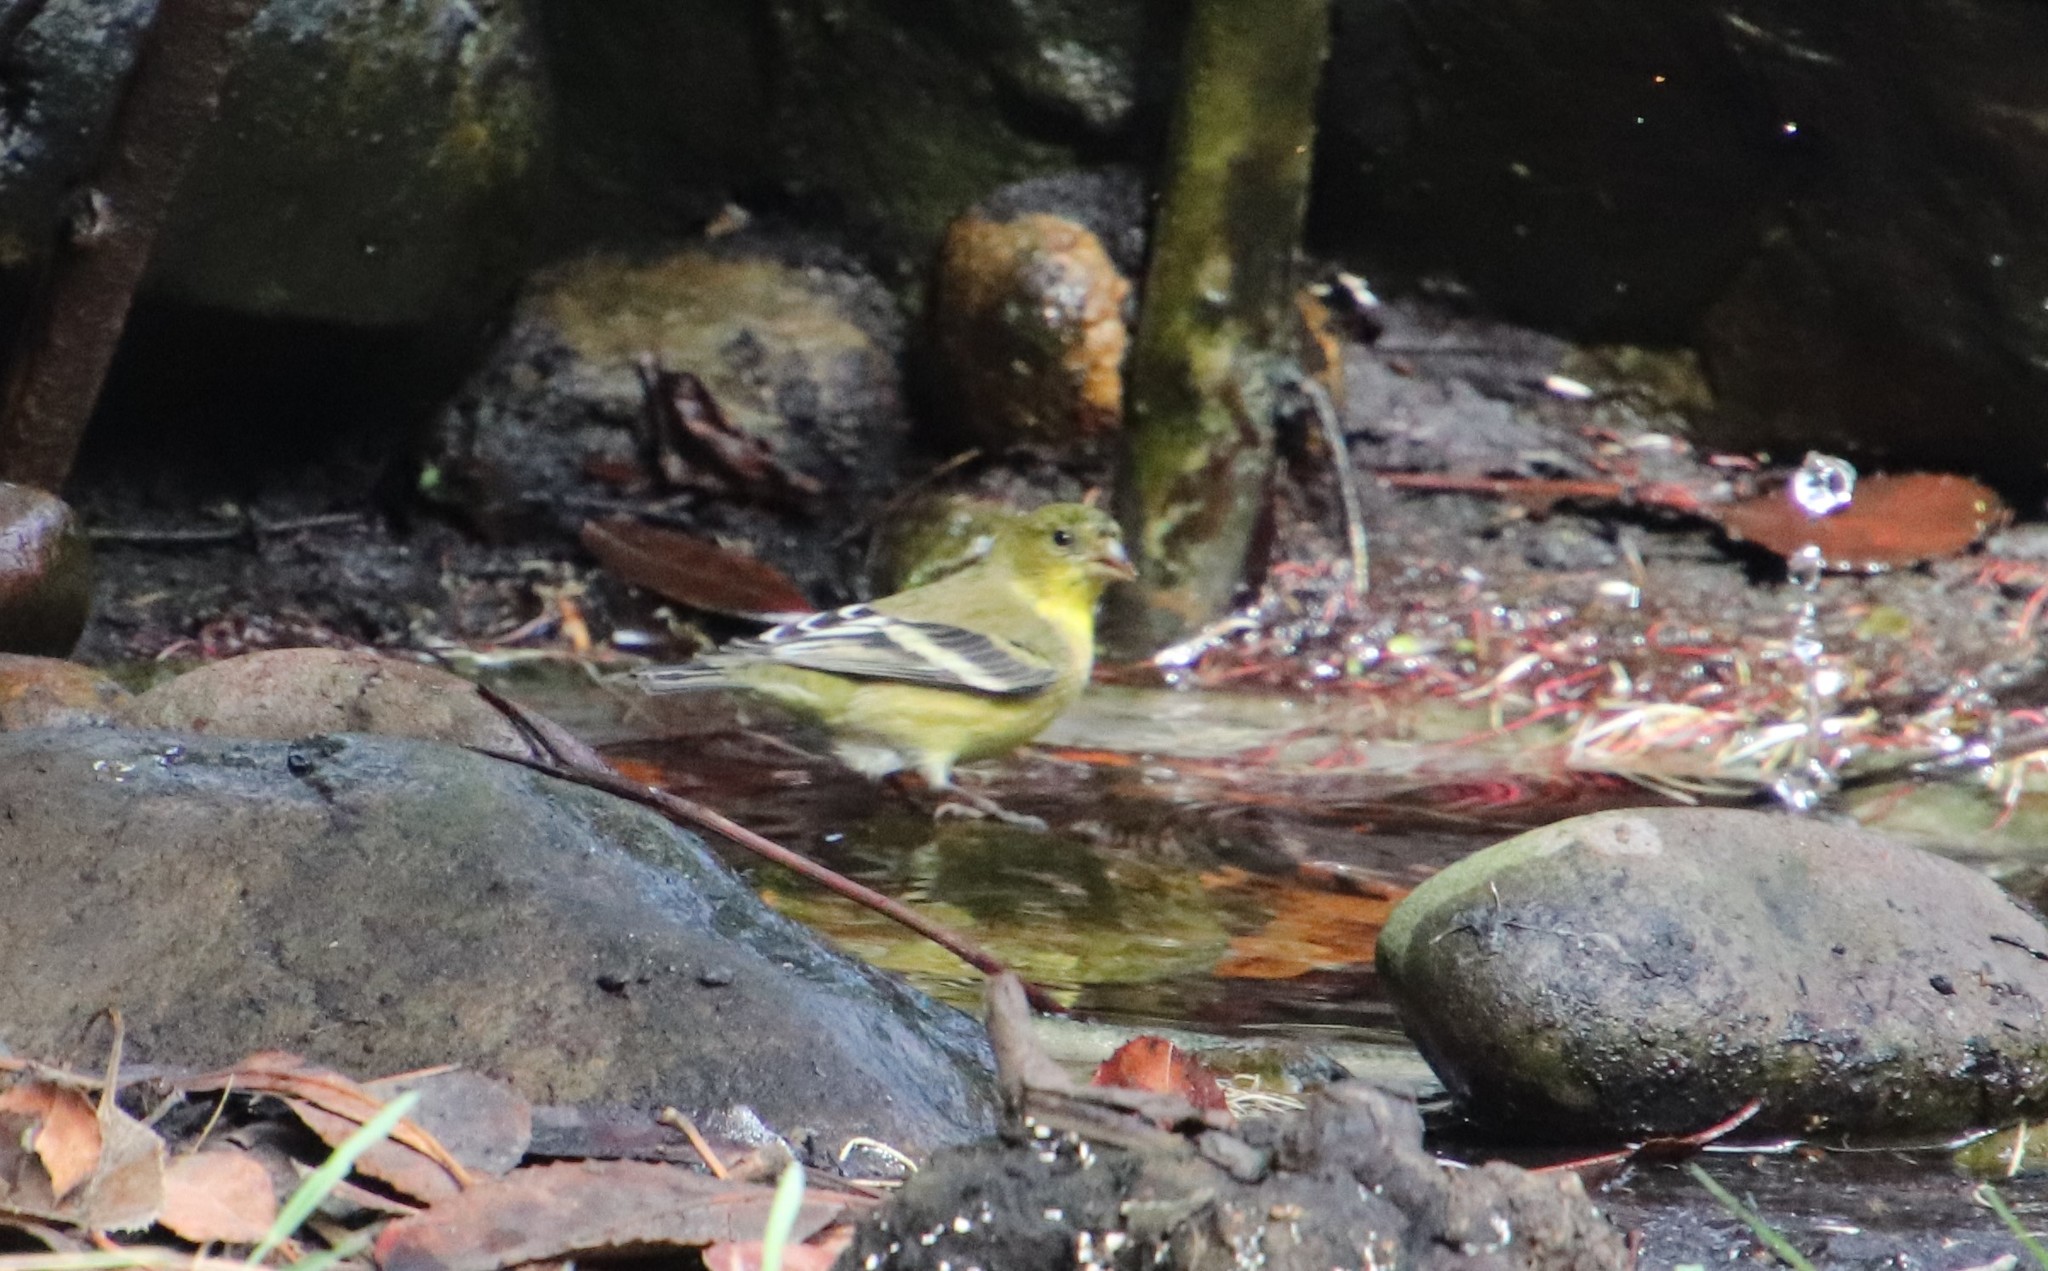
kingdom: Animalia
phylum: Chordata
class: Aves
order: Passeriformes
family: Fringillidae
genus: Spinus
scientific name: Spinus psaltria
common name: Lesser goldfinch
